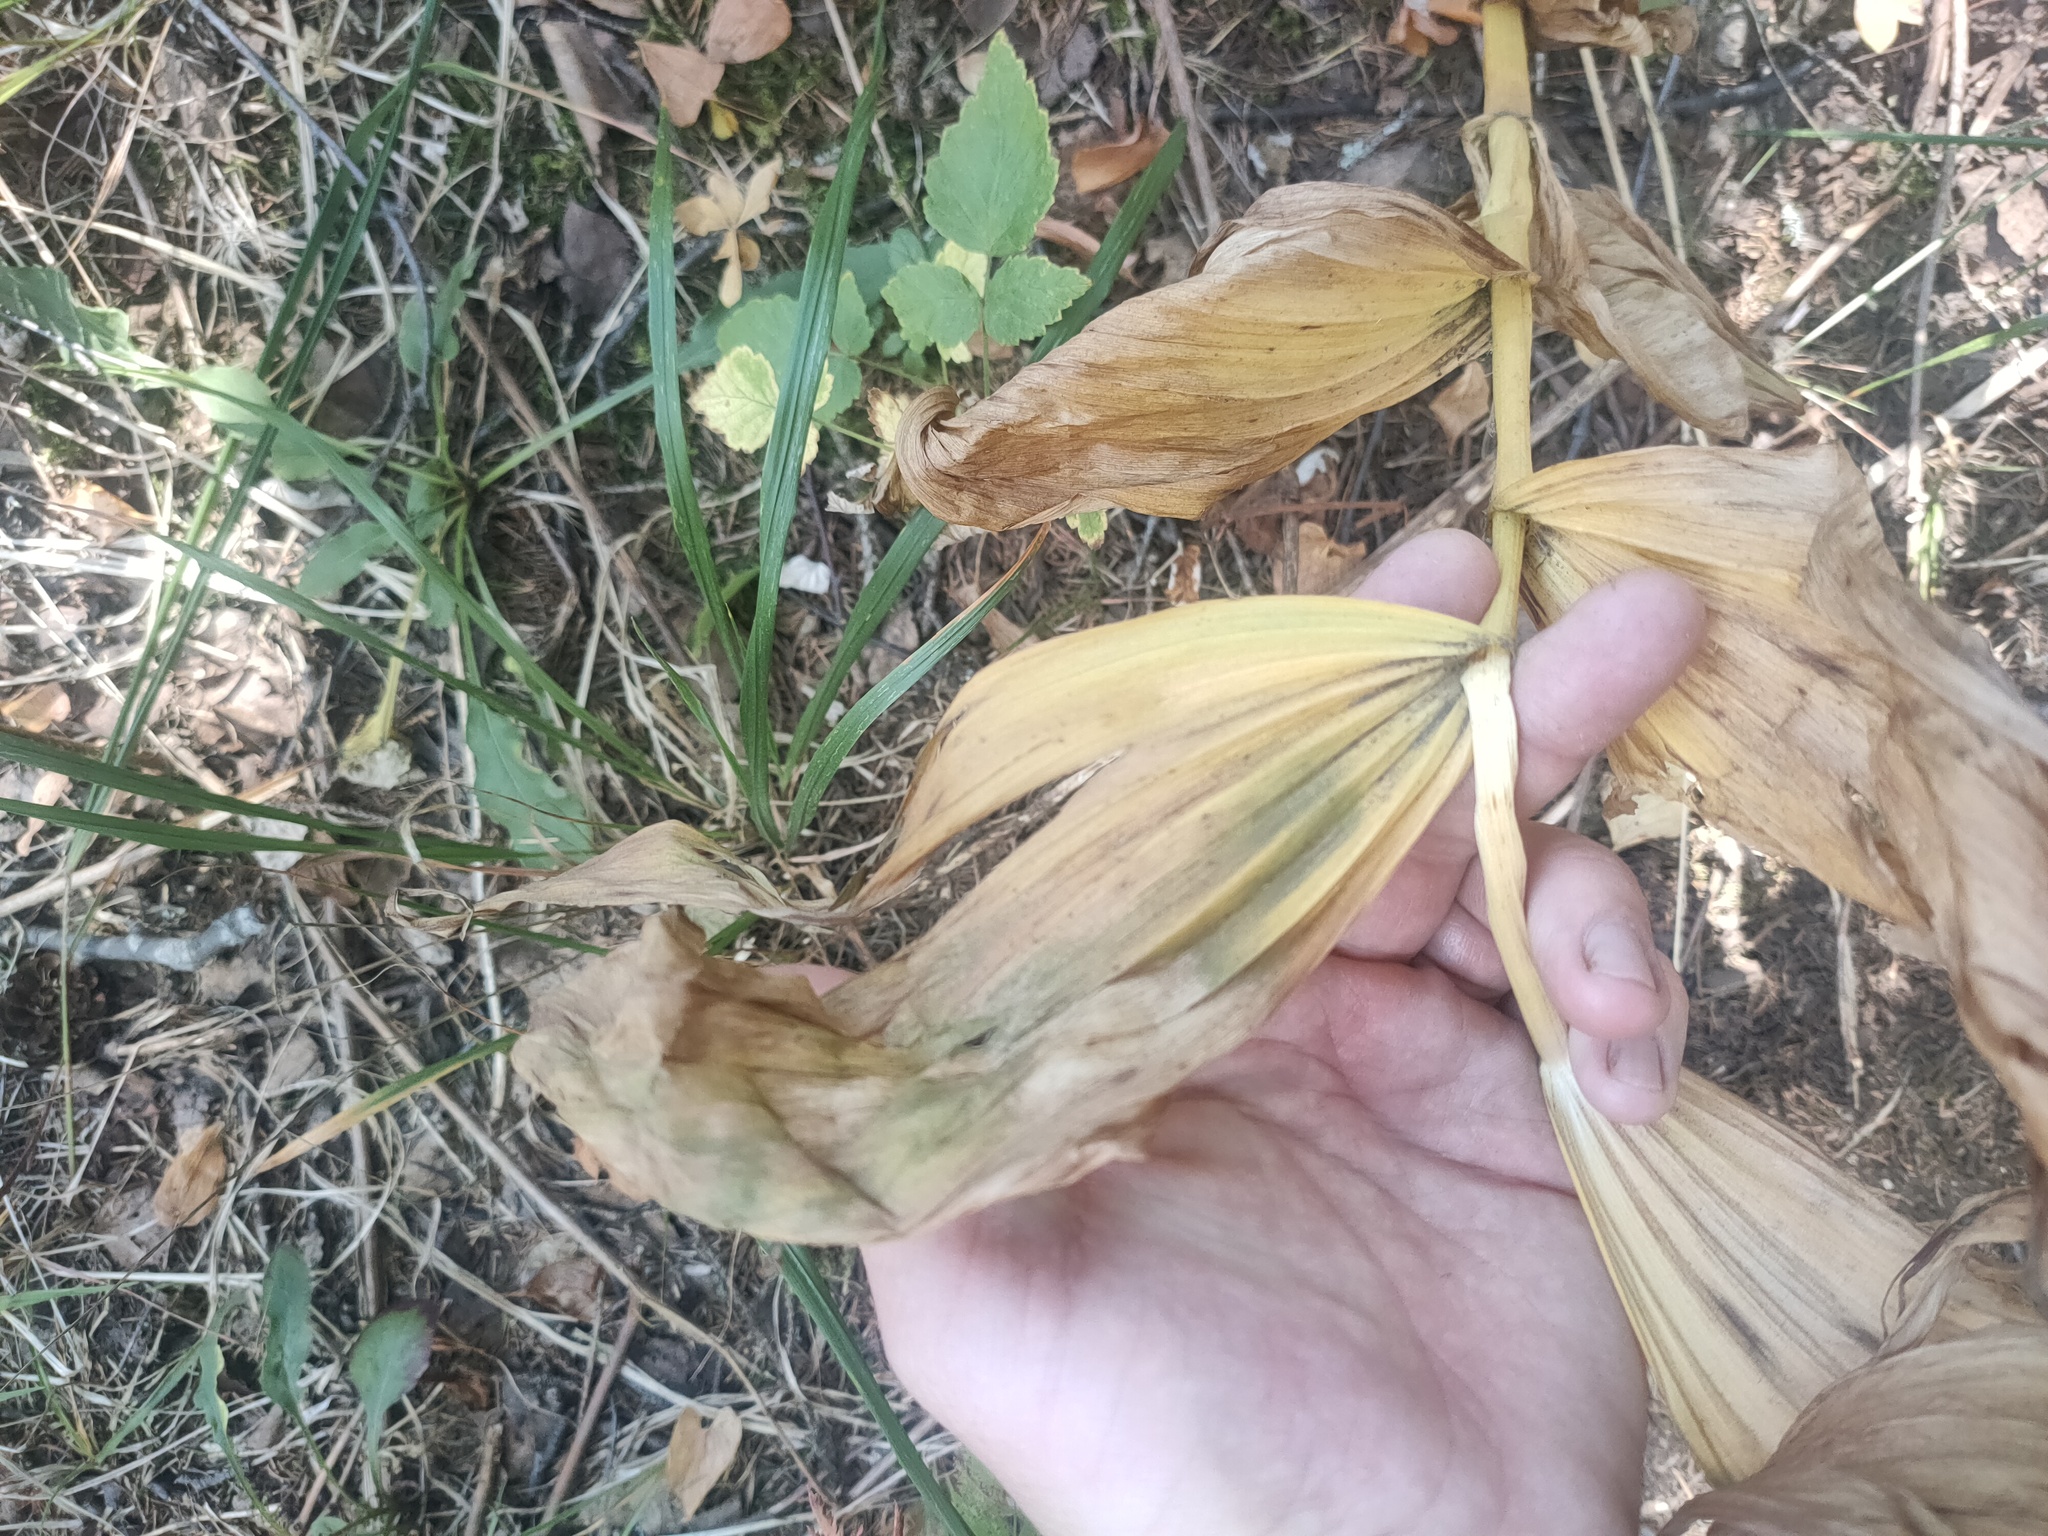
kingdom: Plantae
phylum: Tracheophyta
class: Liliopsida
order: Liliales
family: Melanthiaceae
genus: Veratrum
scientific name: Veratrum lobelianum
